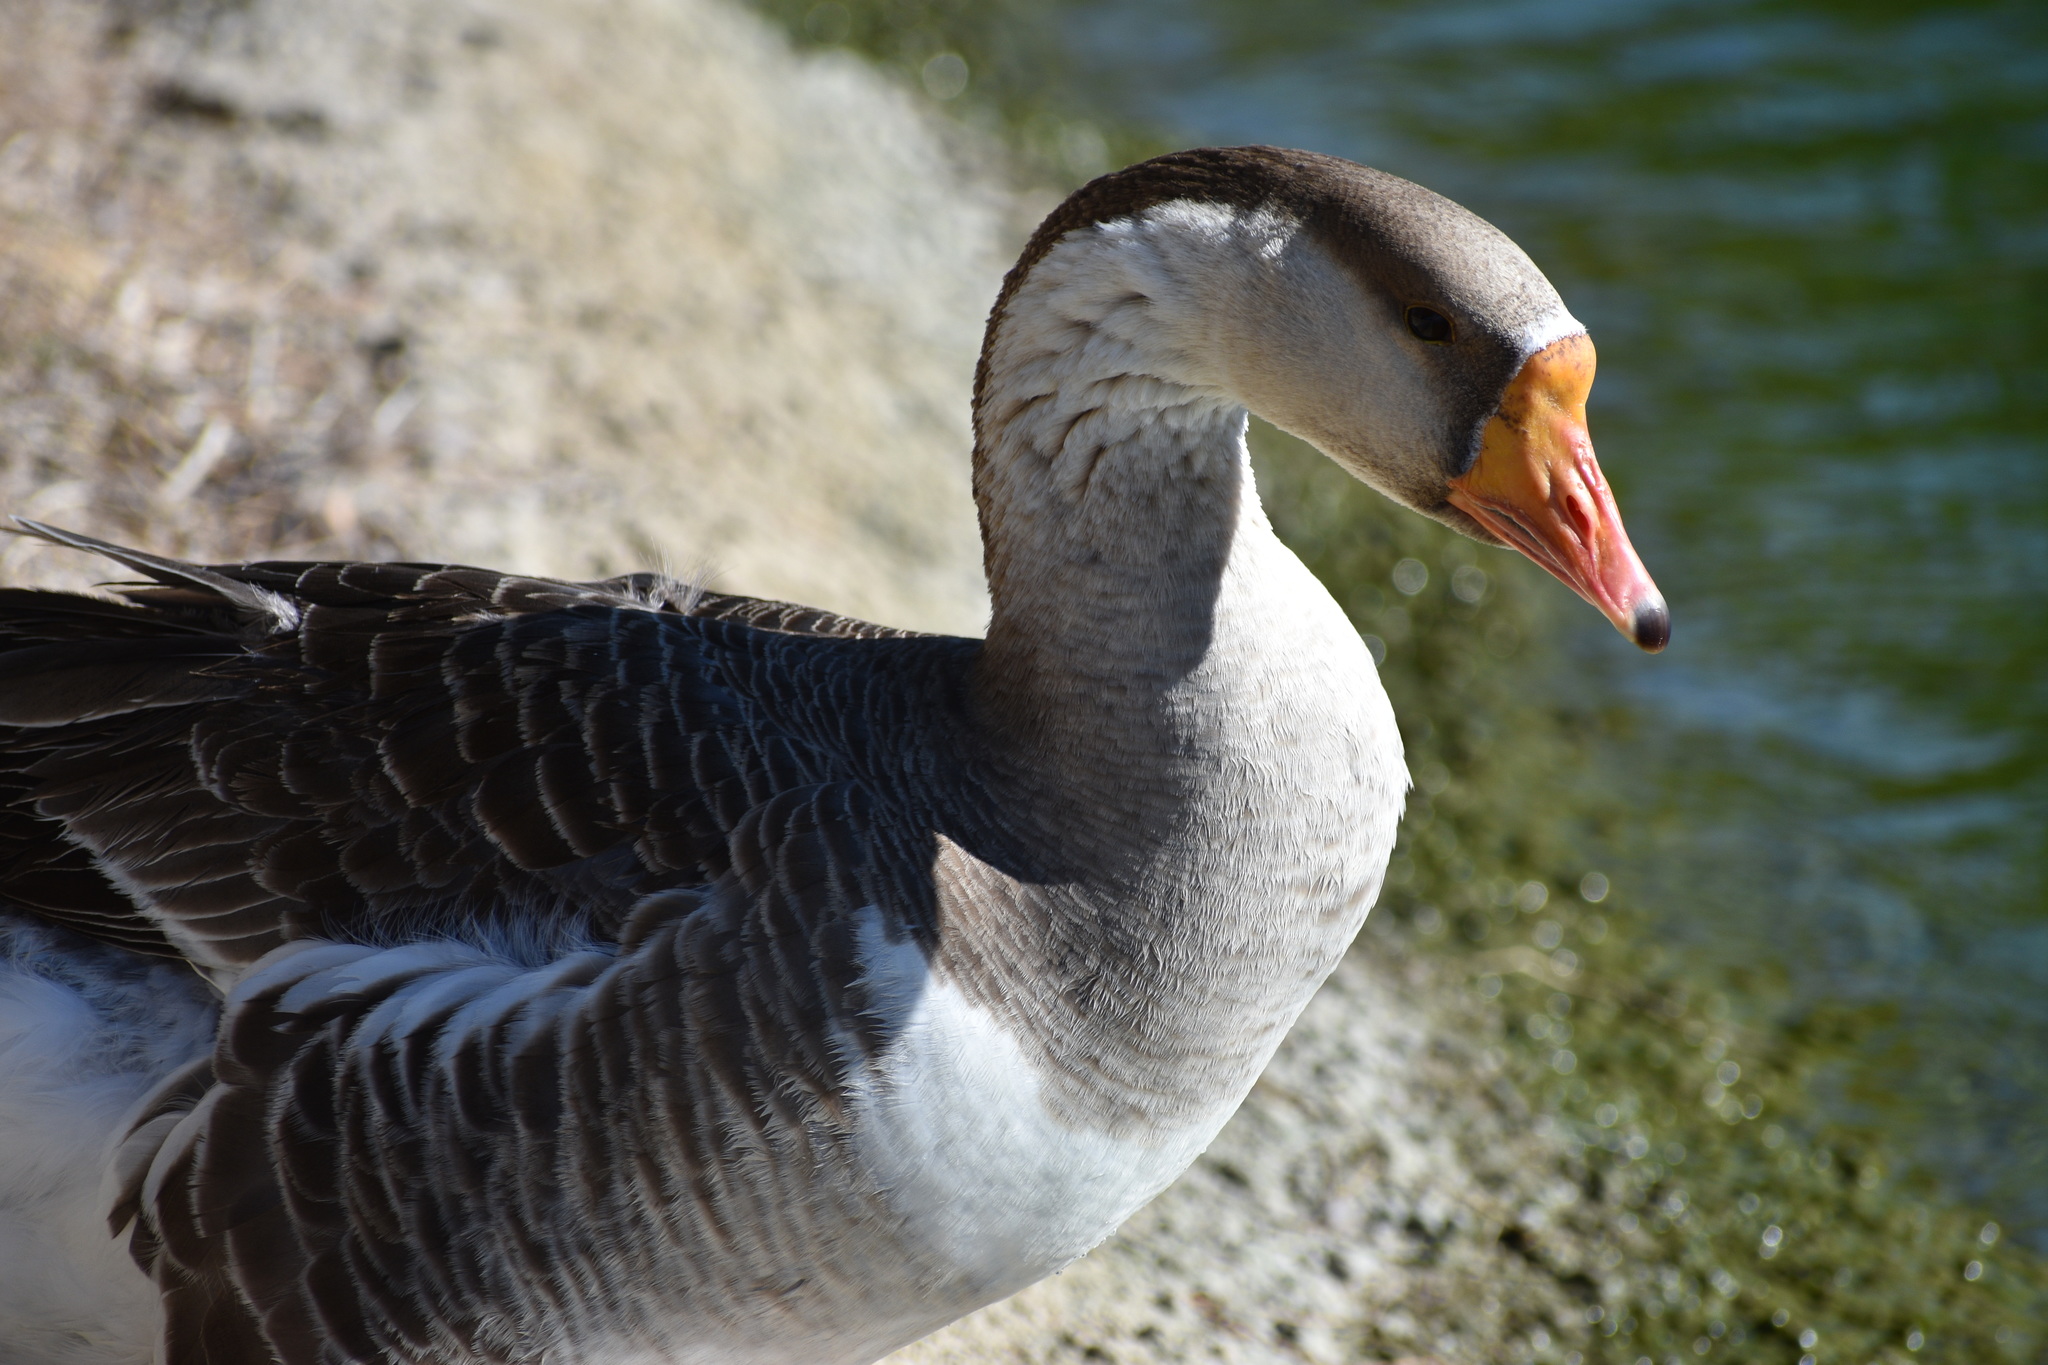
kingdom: Animalia
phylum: Chordata
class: Aves
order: Anseriformes
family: Anatidae
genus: Anser
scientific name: Anser cygnoides
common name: Swan goose
